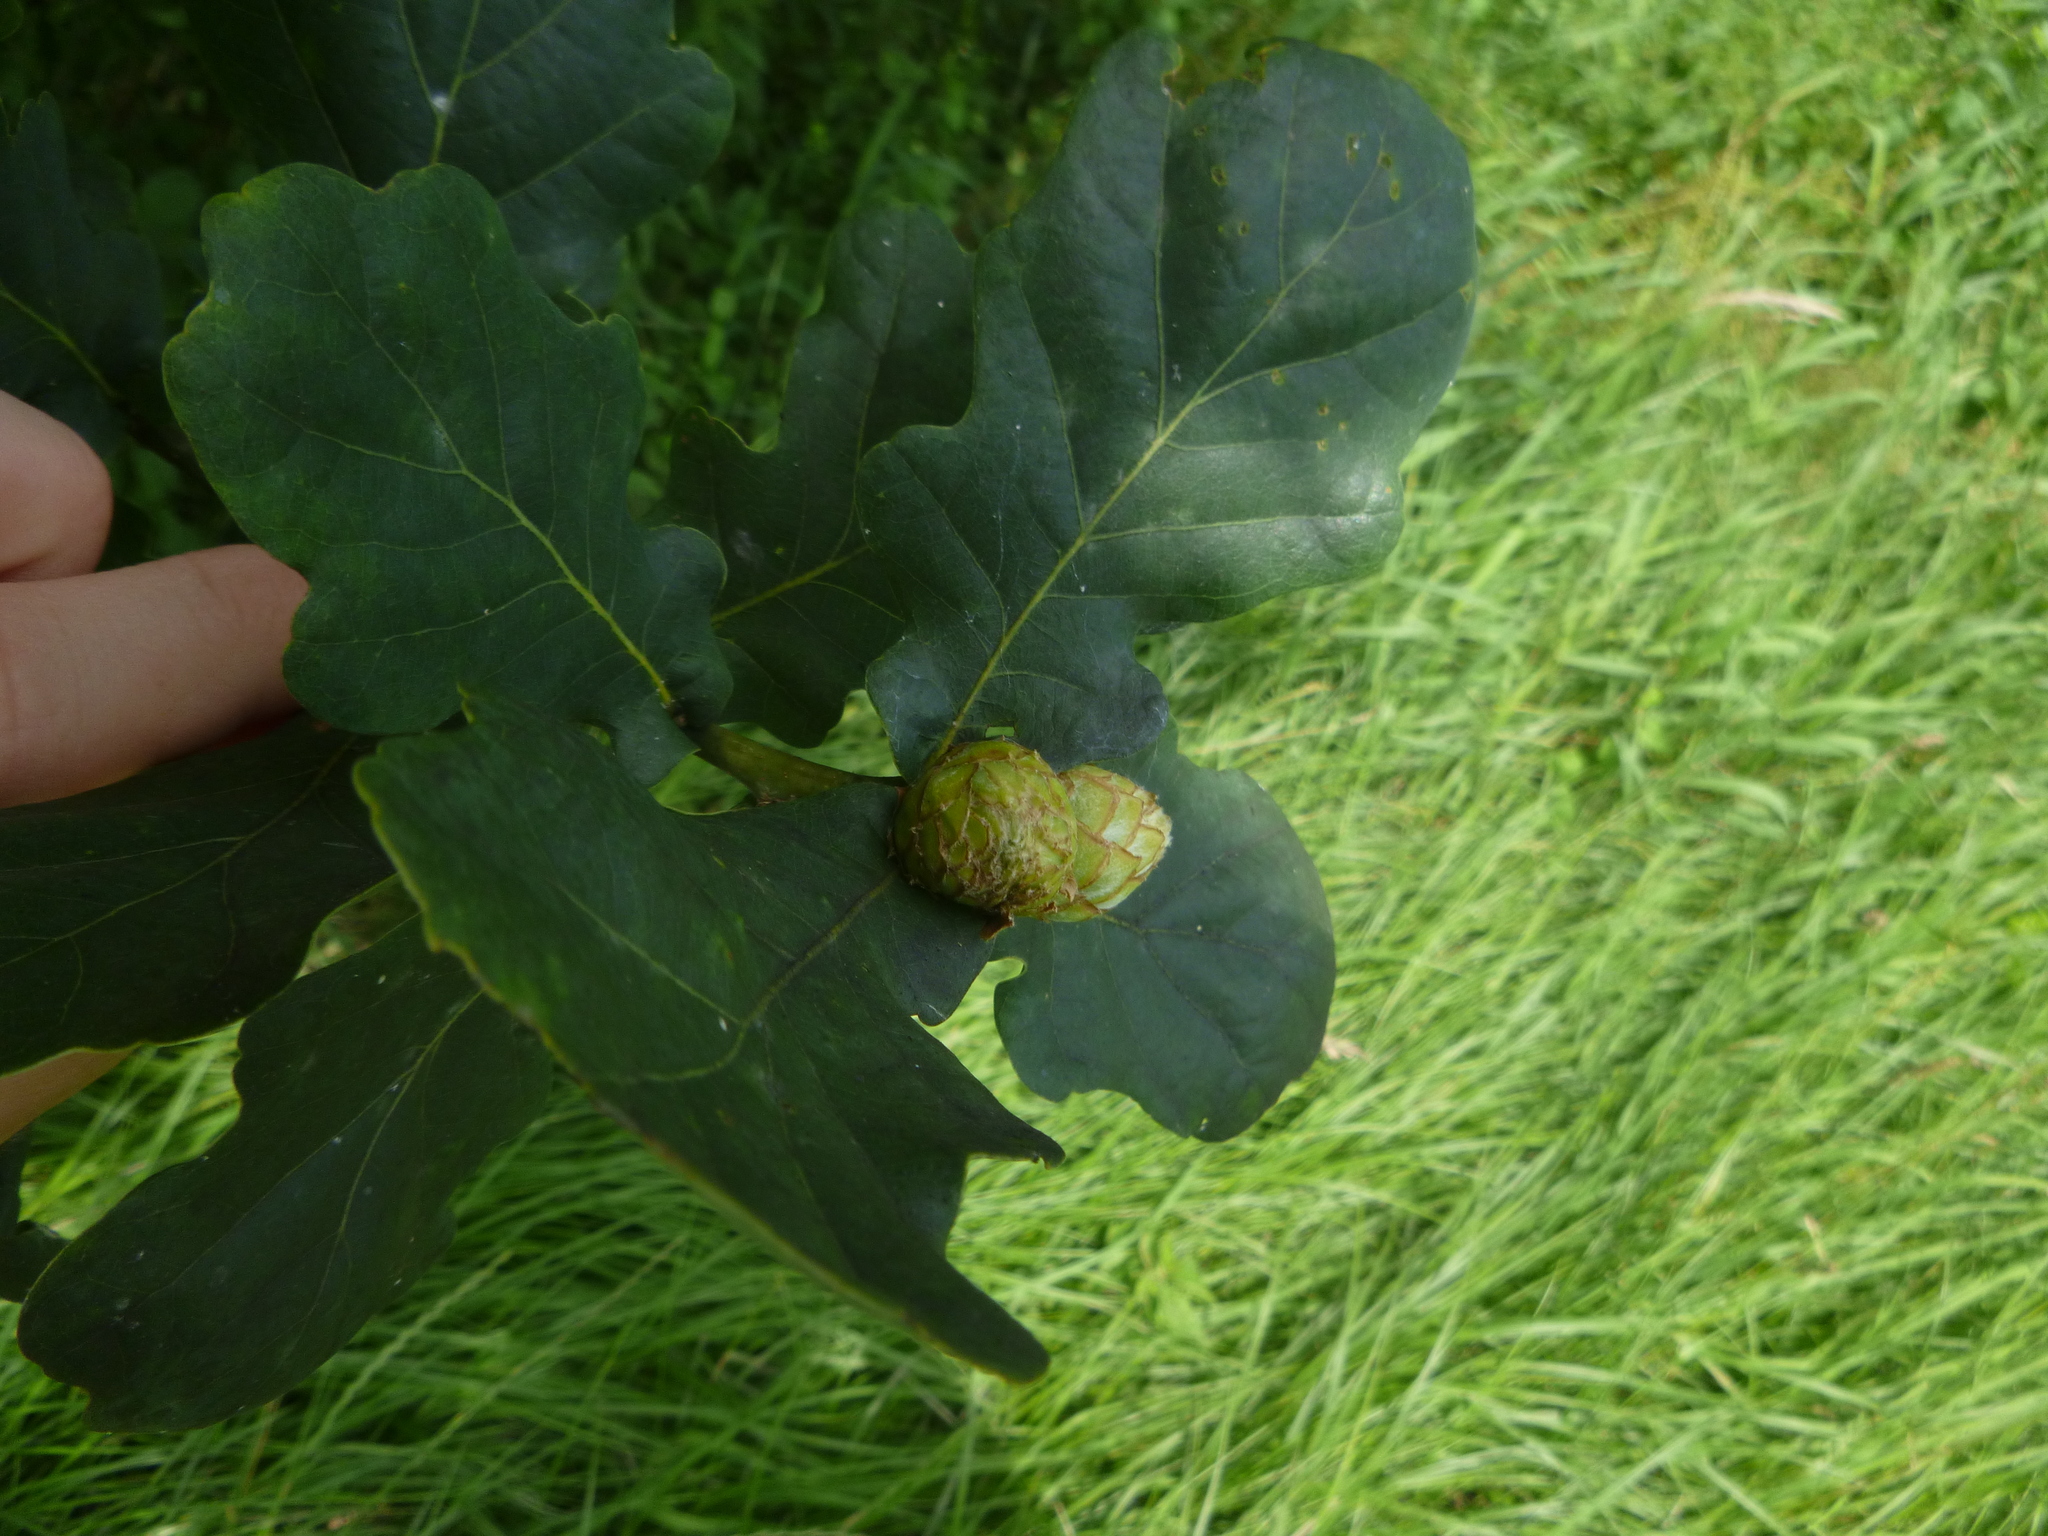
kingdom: Animalia
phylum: Arthropoda
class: Insecta
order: Hymenoptera
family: Cynipidae
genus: Andricus
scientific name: Andricus foecundatrix
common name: Artichoke gall
